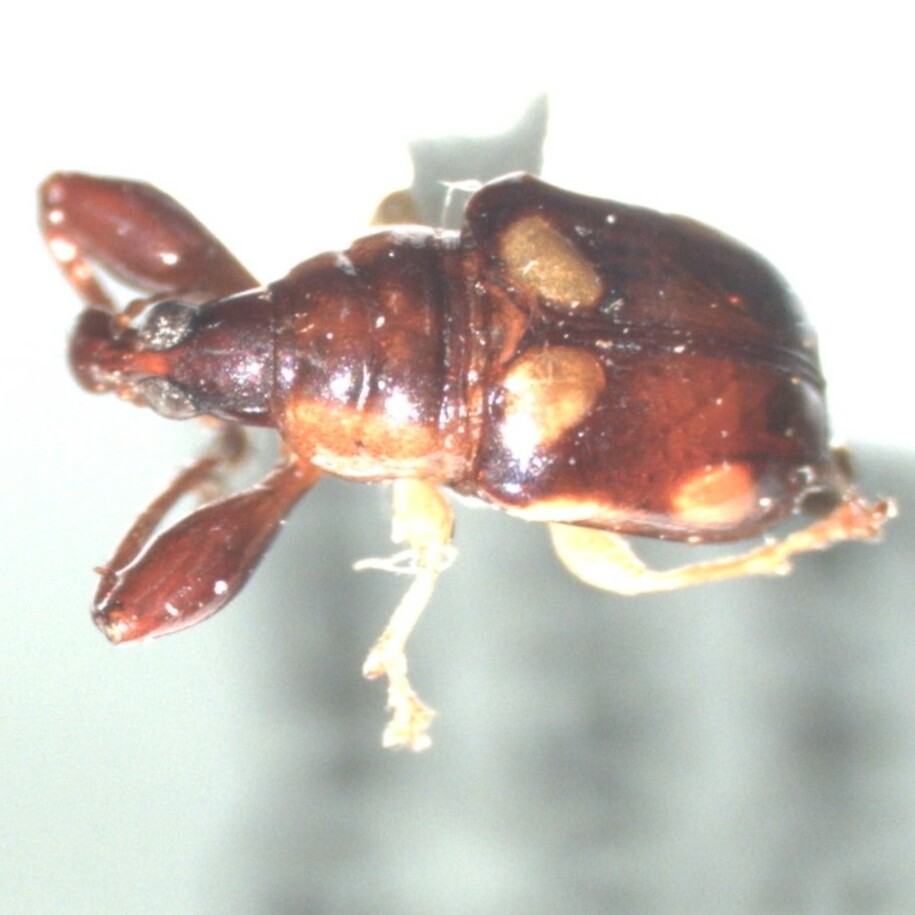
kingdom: Animalia
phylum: Arthropoda
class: Insecta
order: Coleoptera
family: Attelabidae
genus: Euscelus
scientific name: Euscelus sexmaculatus
